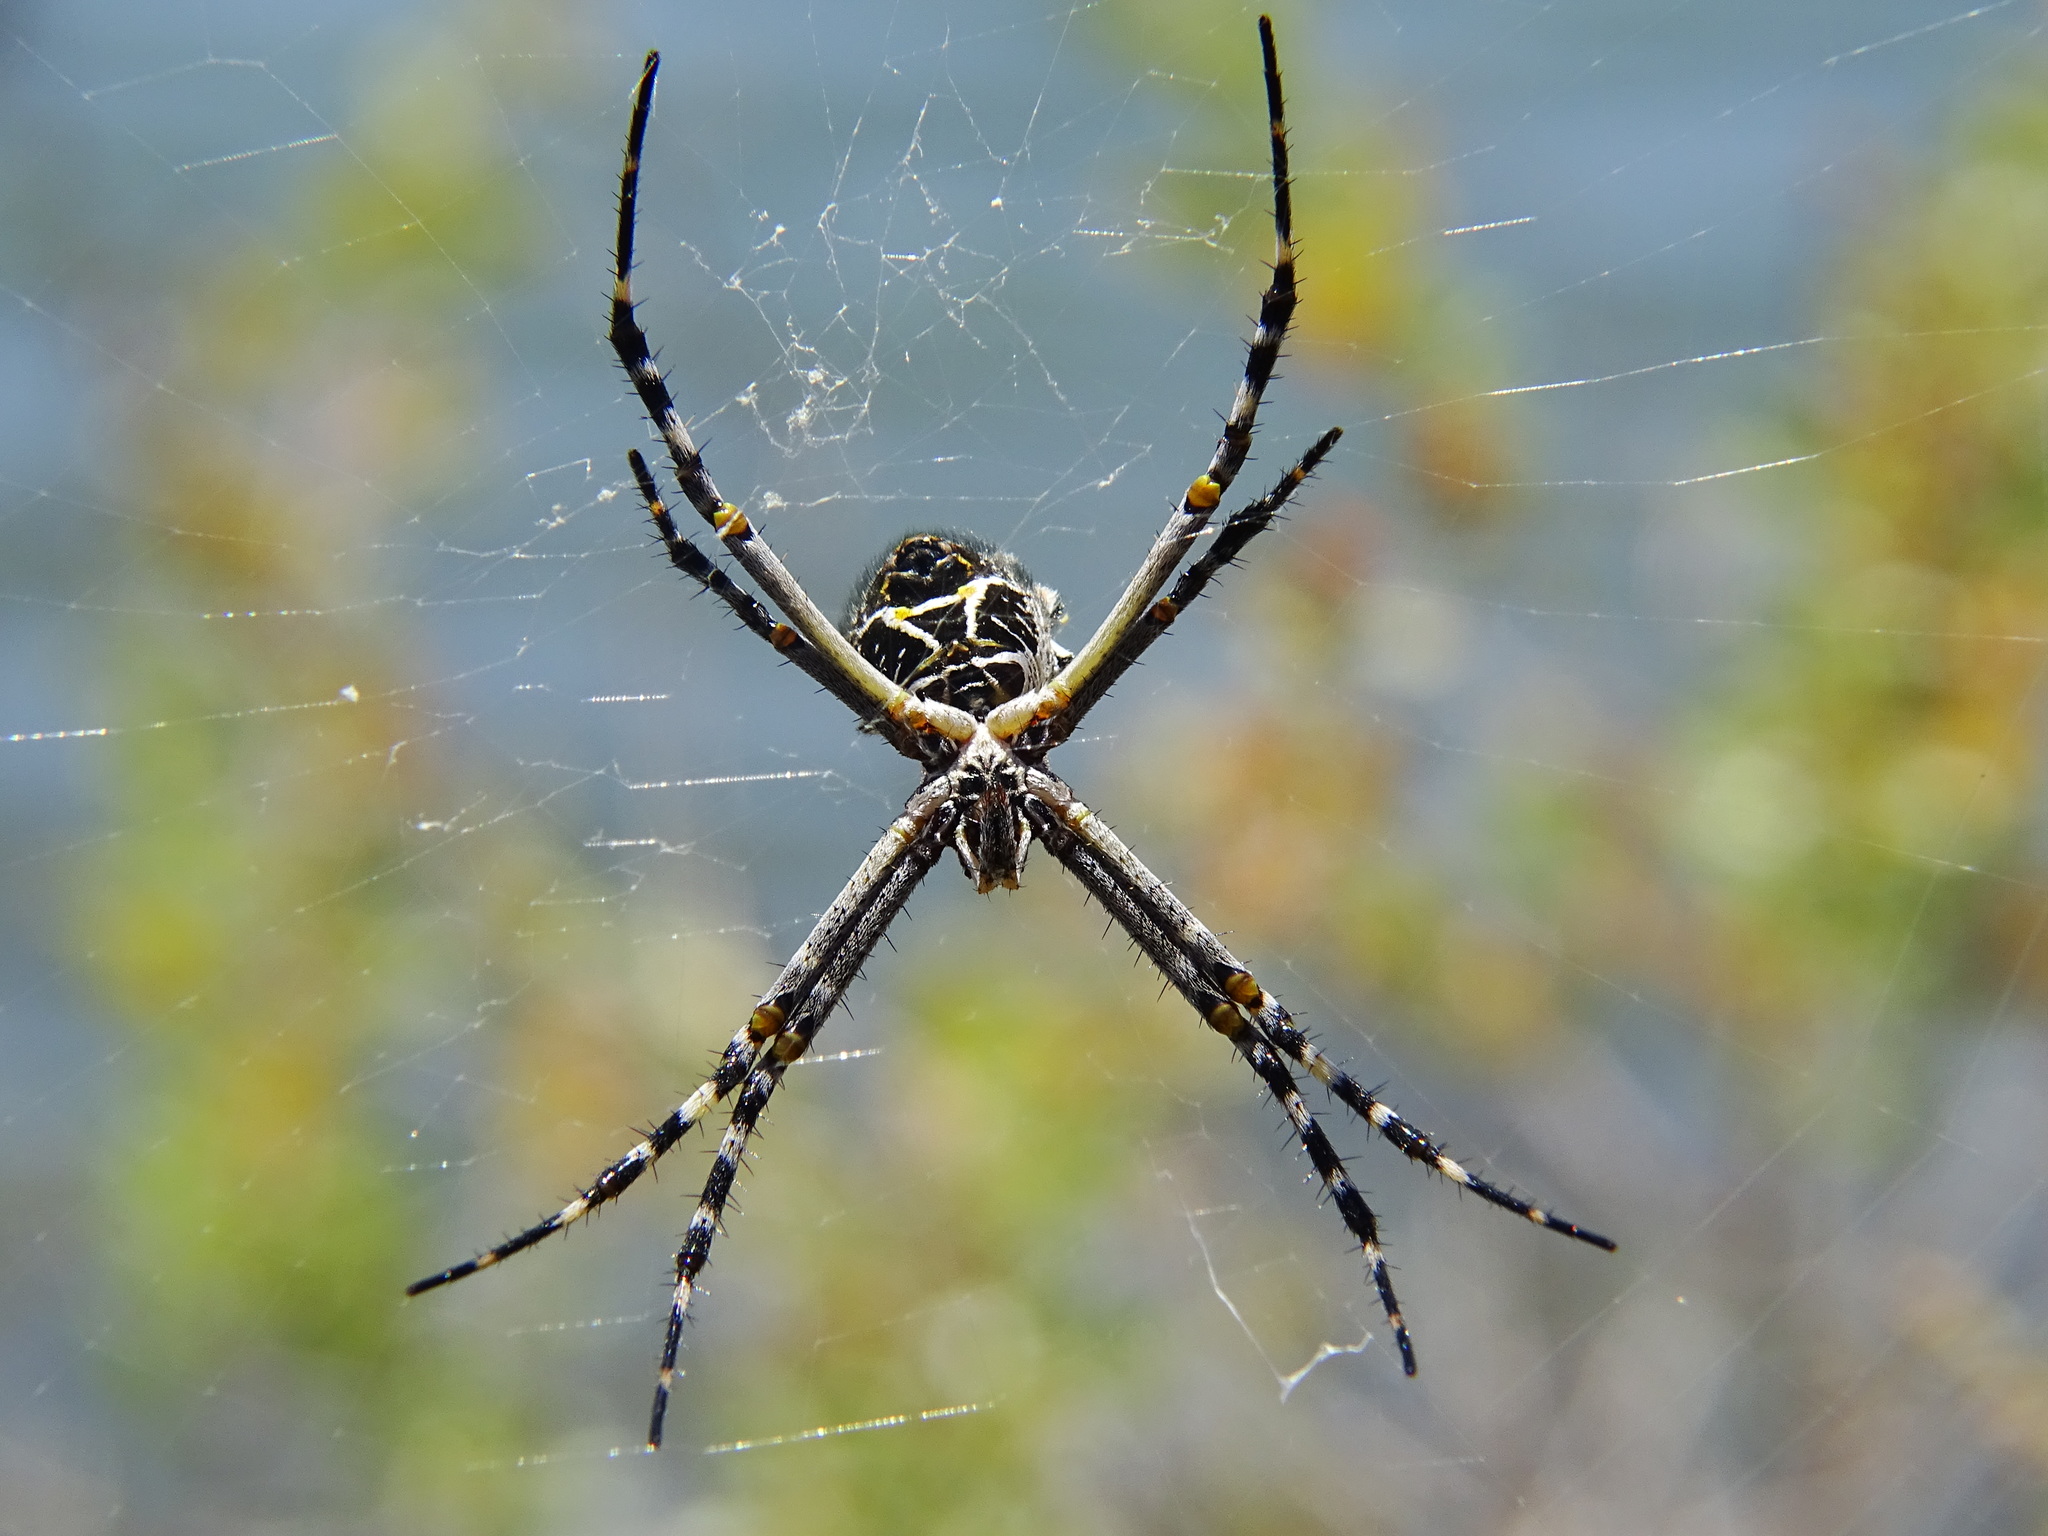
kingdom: Animalia
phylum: Arthropoda
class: Arachnida
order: Araneae
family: Araneidae
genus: Argiope
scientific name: Argiope argentata
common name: Orb weavers
